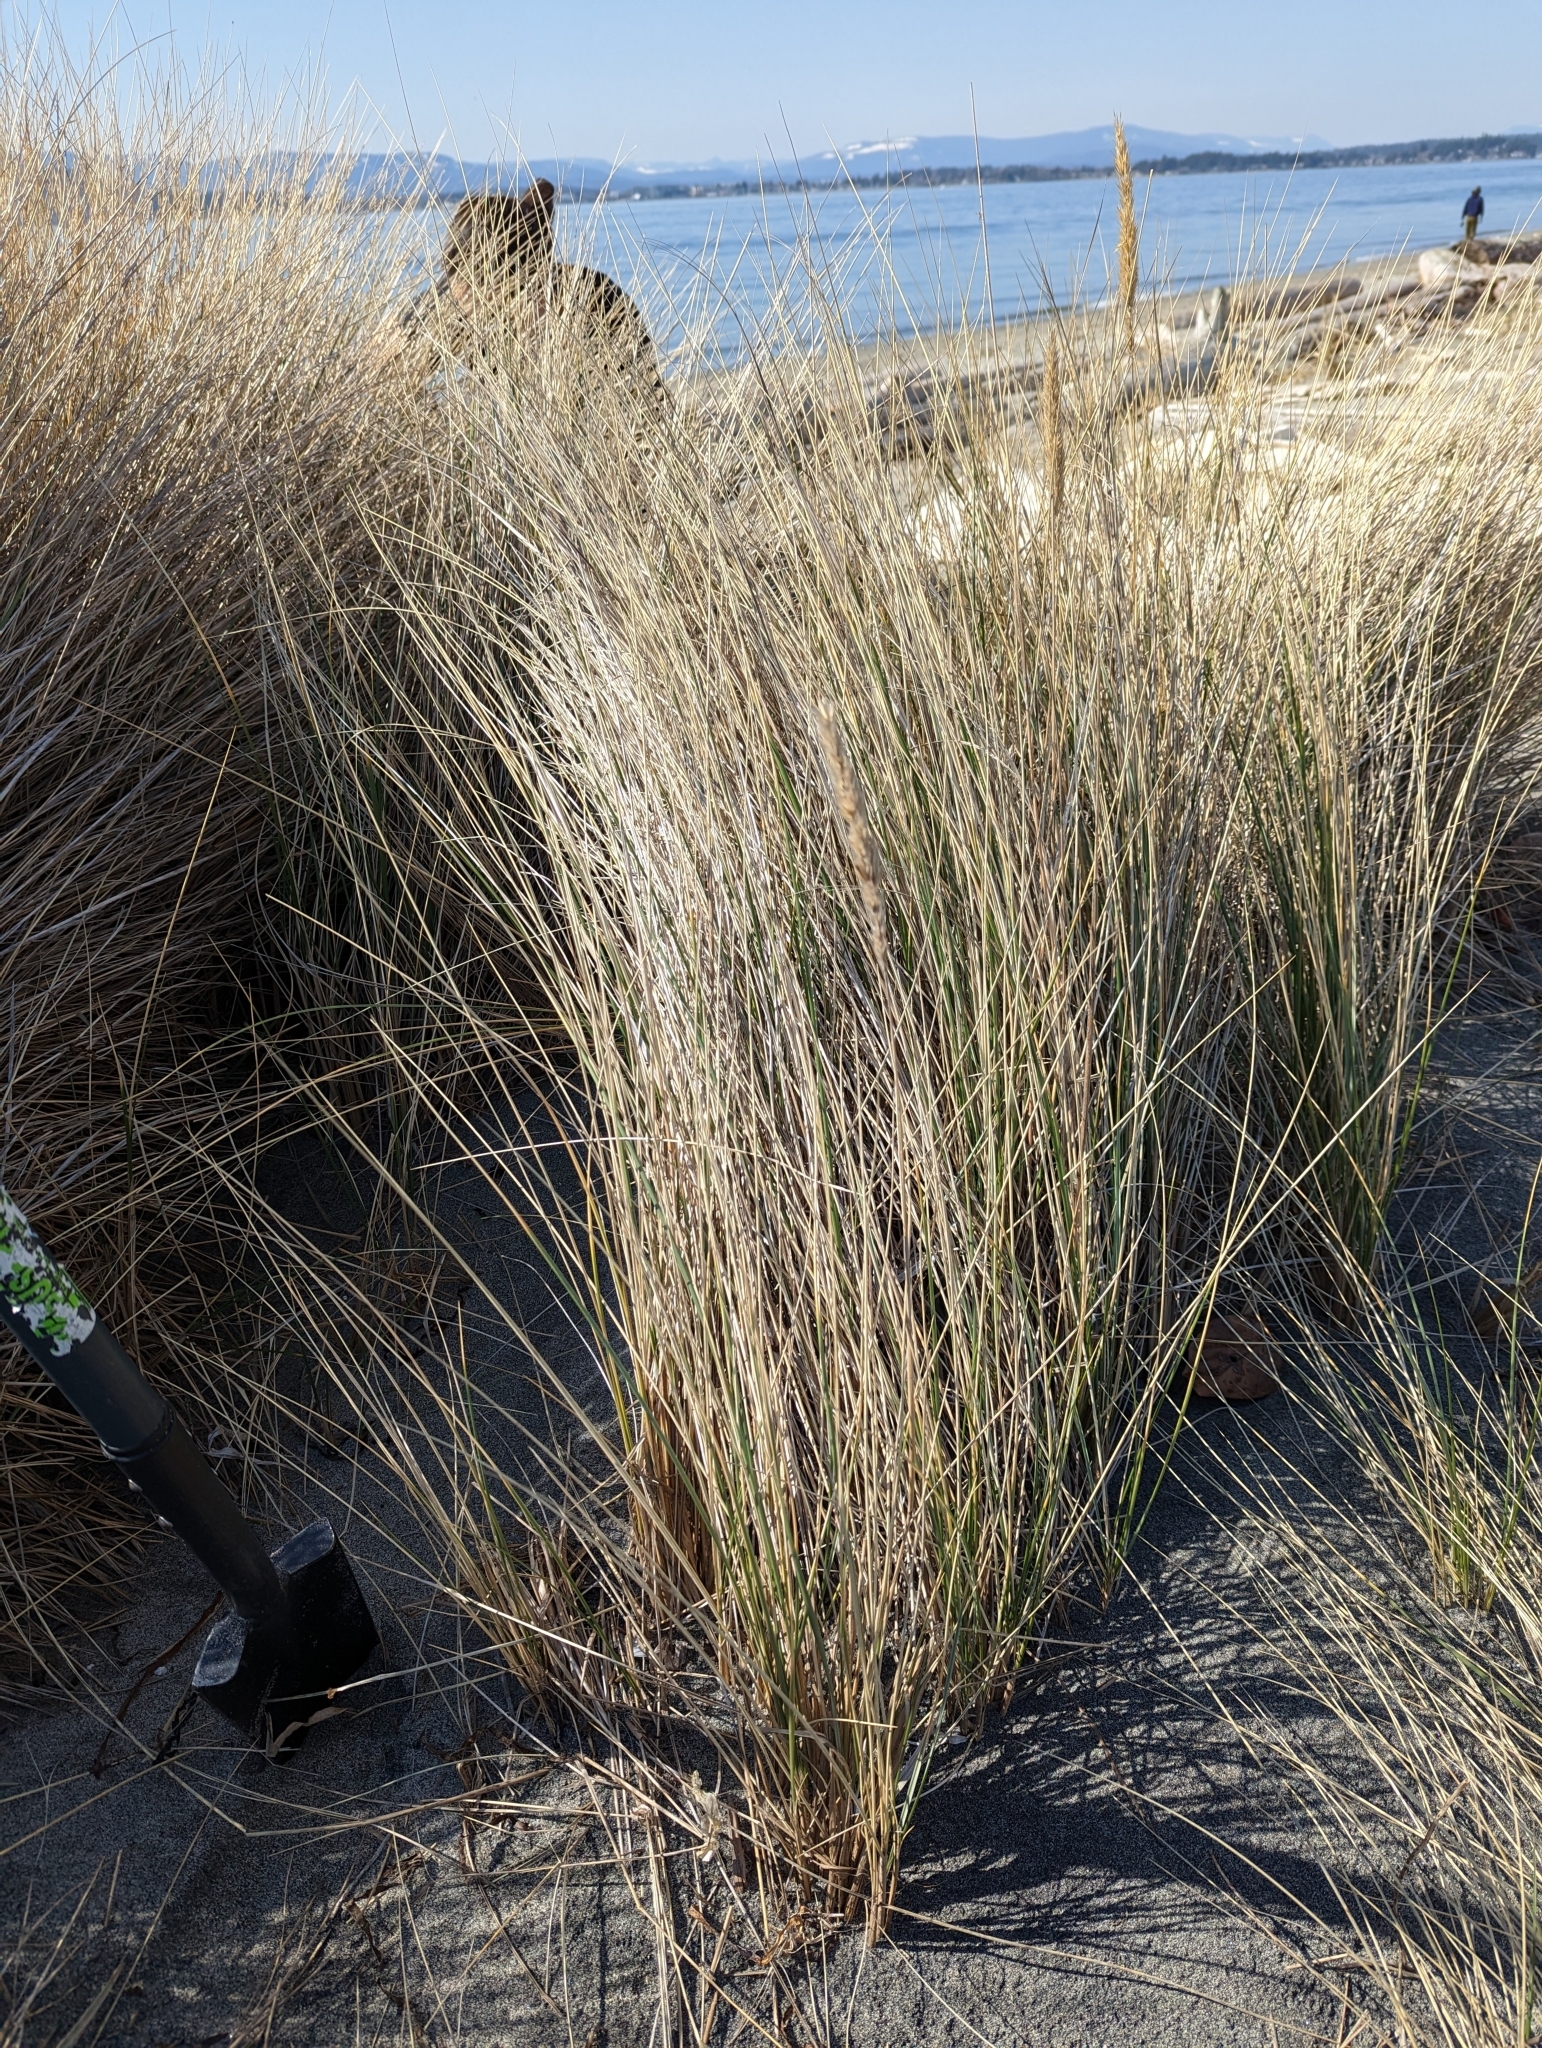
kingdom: Plantae
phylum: Tracheophyta
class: Liliopsida
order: Poales
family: Poaceae
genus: Calamagrostis
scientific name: Calamagrostis arenaria
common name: European beachgrass
